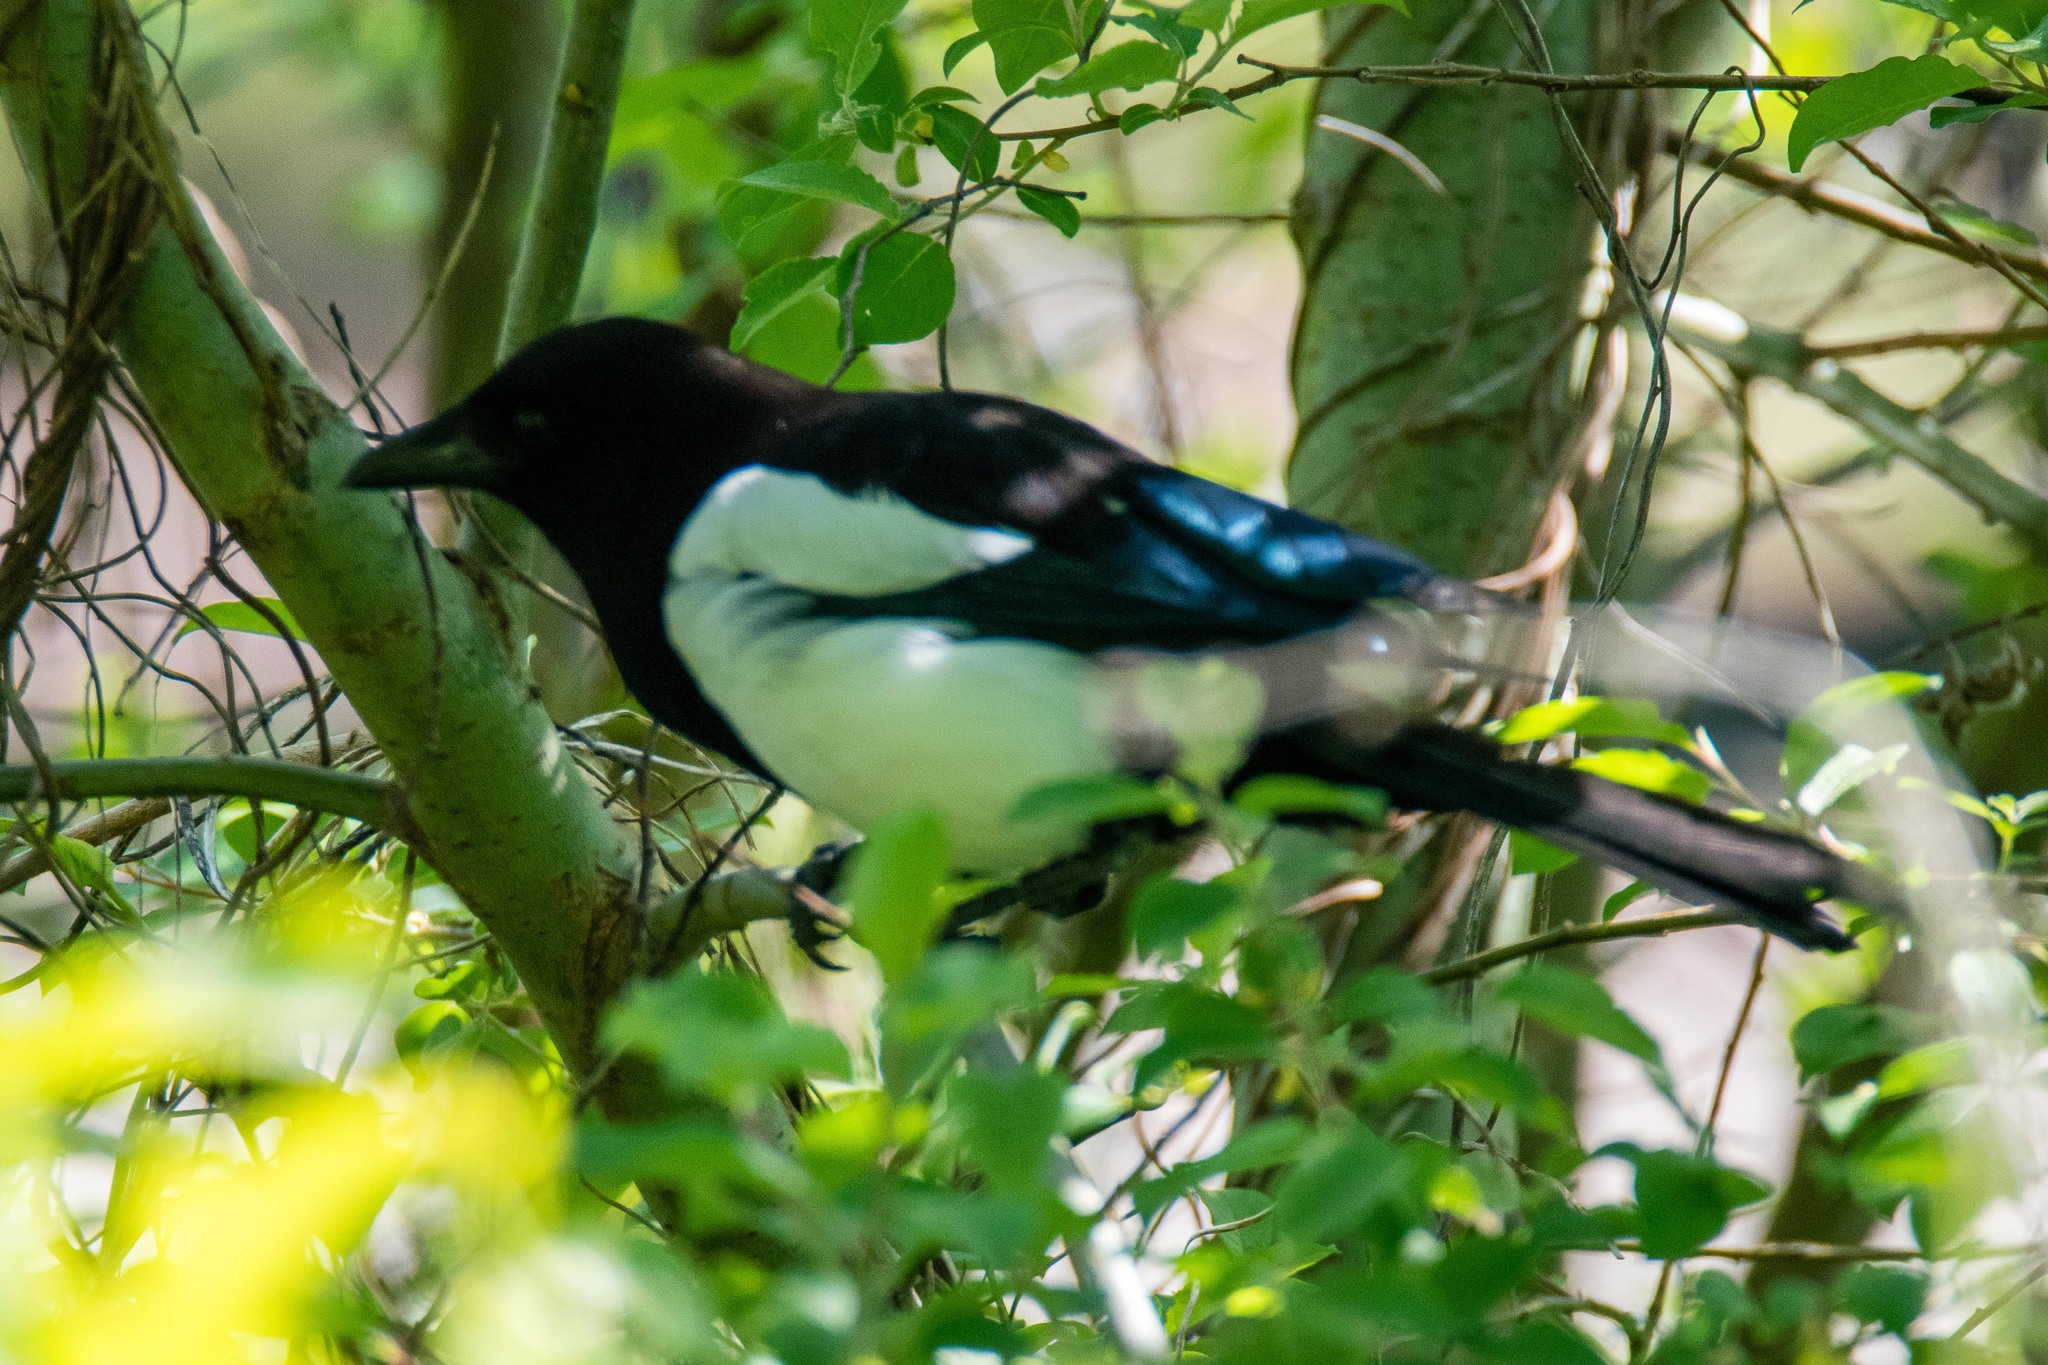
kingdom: Animalia
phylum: Chordata
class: Aves
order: Passeriformes
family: Corvidae
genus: Pica
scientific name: Pica pica
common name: Eurasian magpie
